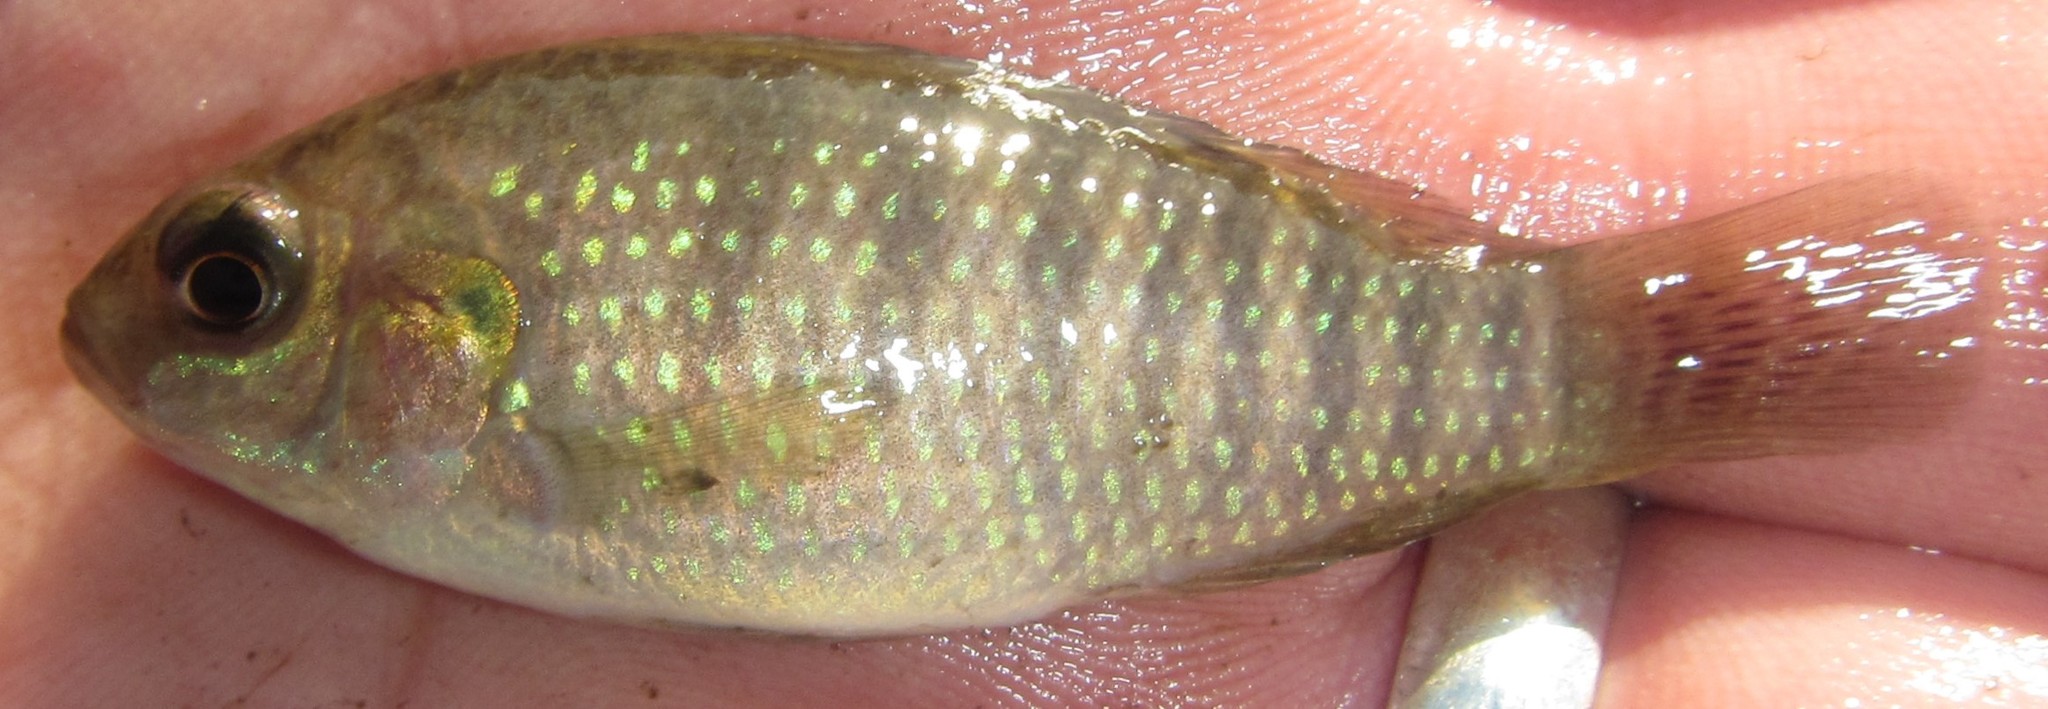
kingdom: Animalia
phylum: Chordata
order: Perciformes
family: Cichlidae
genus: Tilapia
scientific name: Tilapia ruweti
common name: Okavango tilapia
